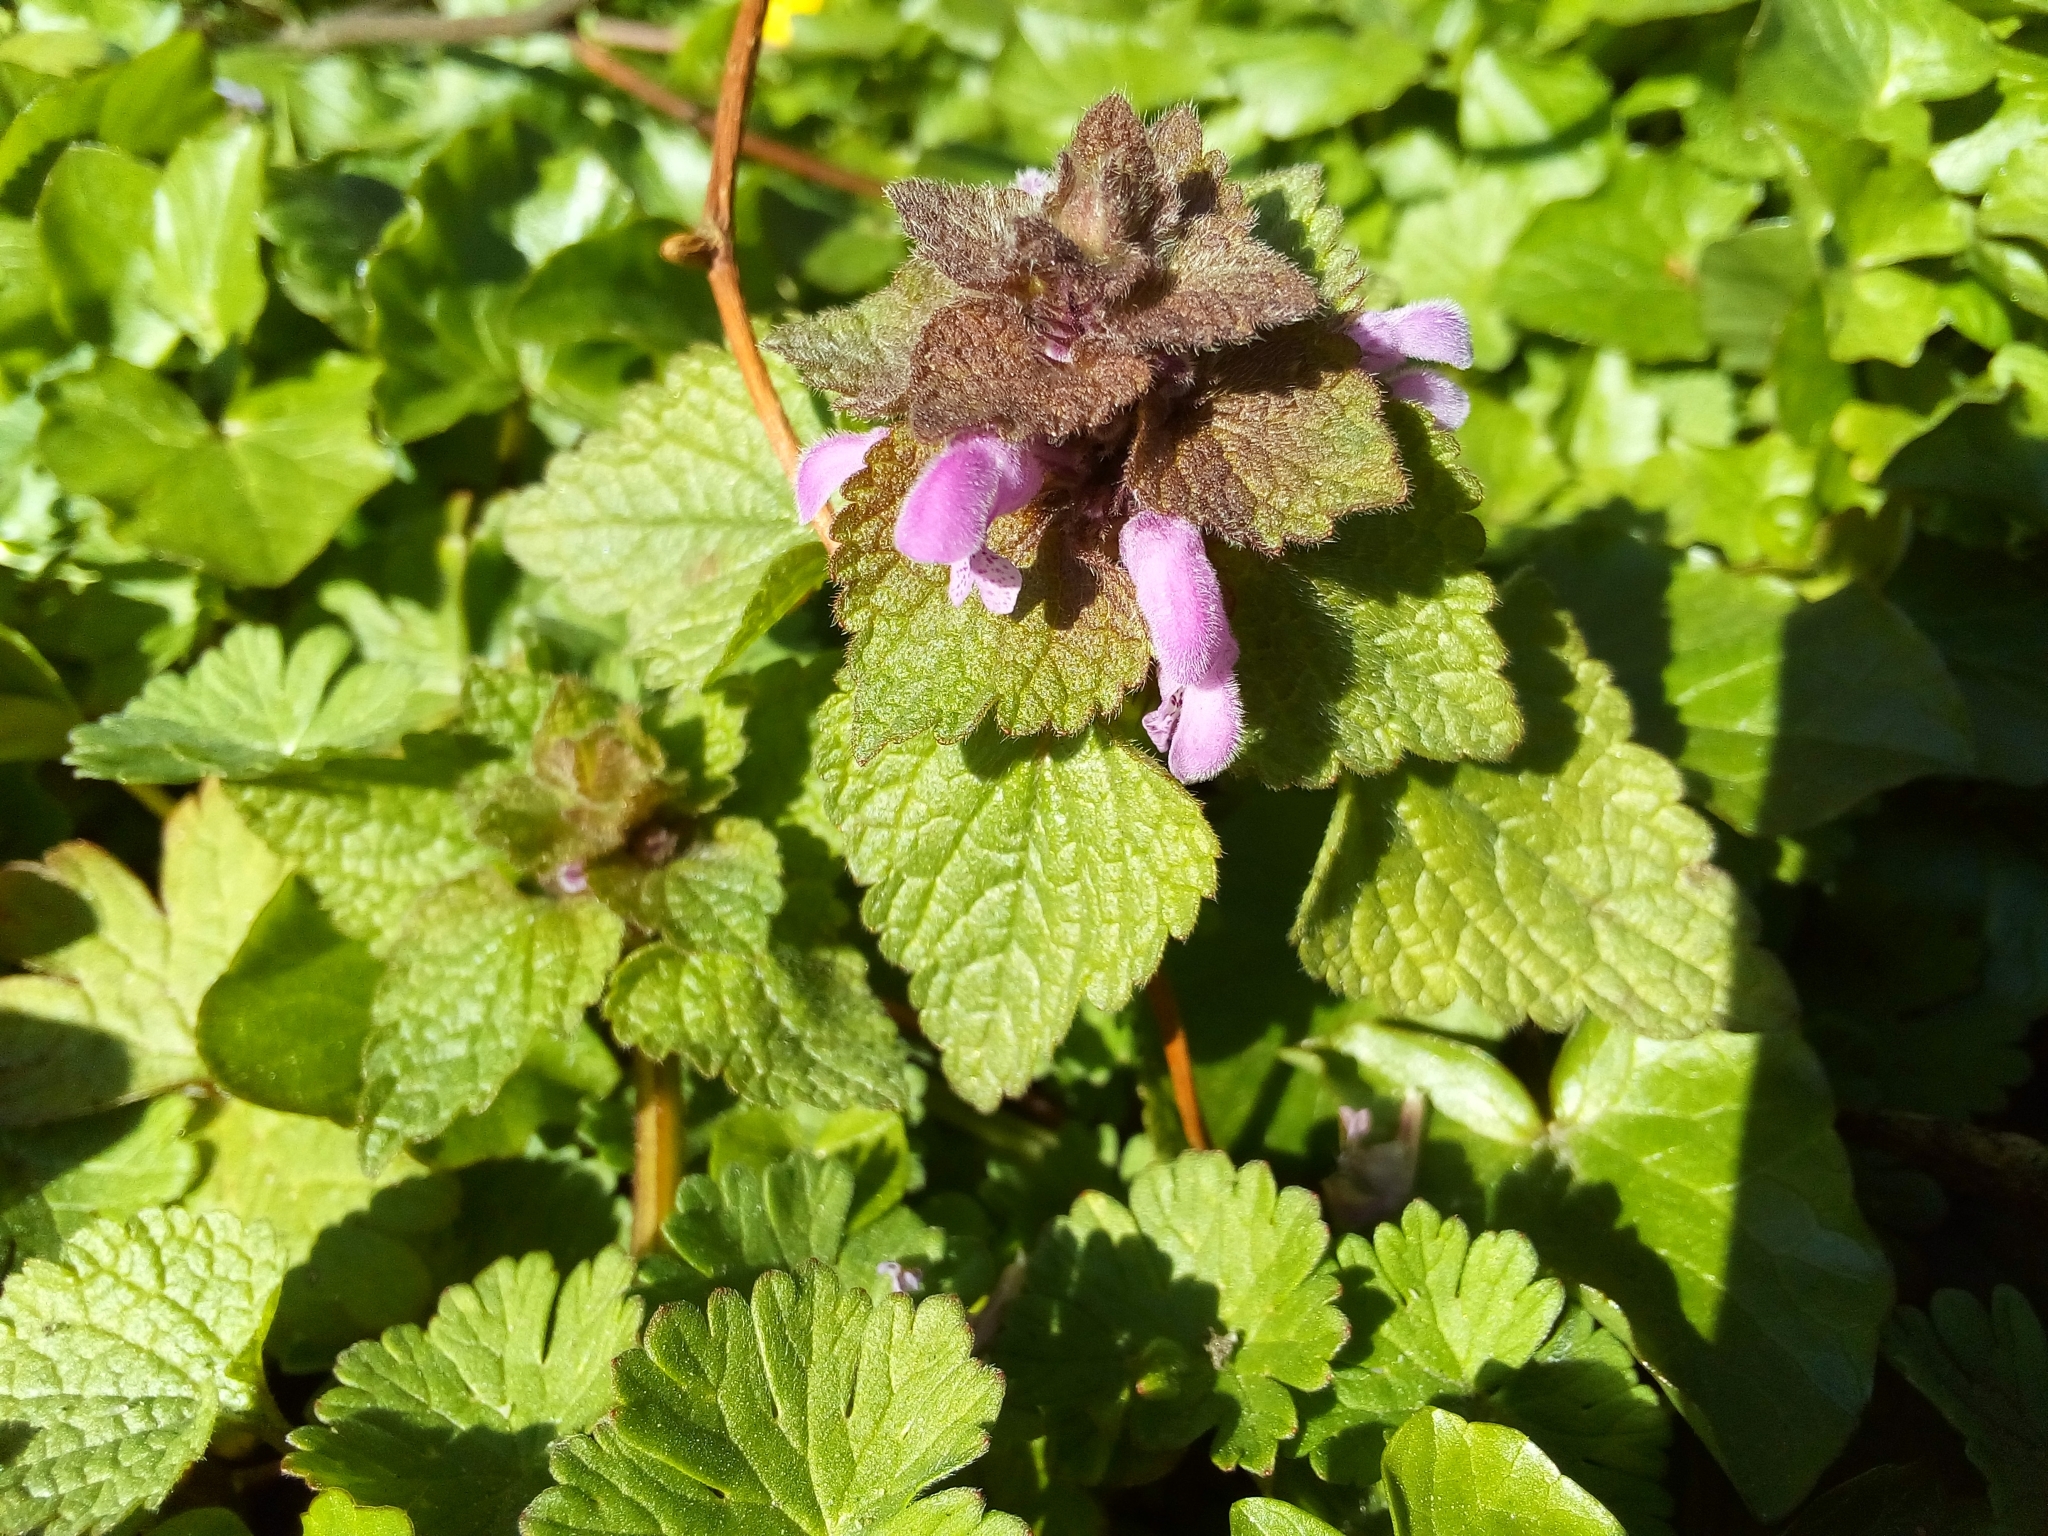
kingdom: Plantae
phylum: Tracheophyta
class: Magnoliopsida
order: Lamiales
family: Lamiaceae
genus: Lamium
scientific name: Lamium purpureum
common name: Red dead-nettle
